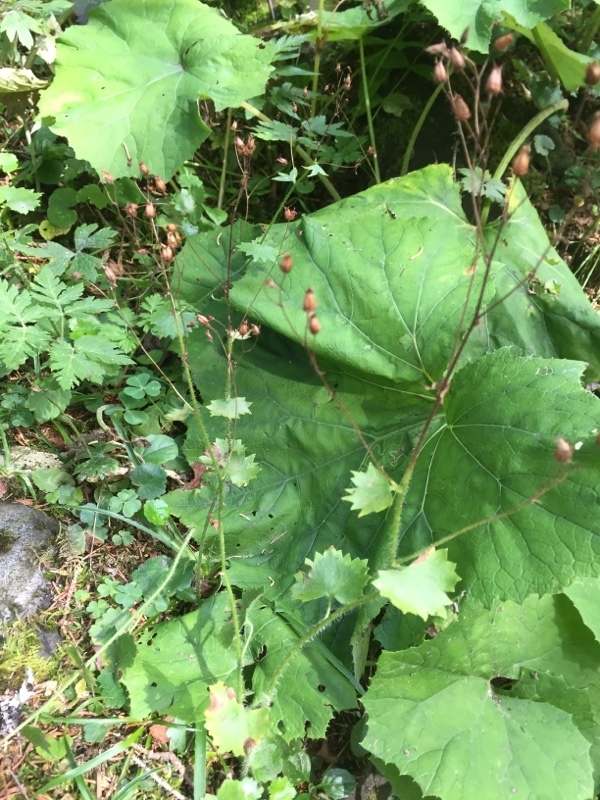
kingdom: Plantae
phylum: Tracheophyta
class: Magnoliopsida
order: Saxifragales
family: Saxifragaceae
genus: Saxifraga
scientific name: Saxifraga rotundifolia
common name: Round-leaved saxifrage
